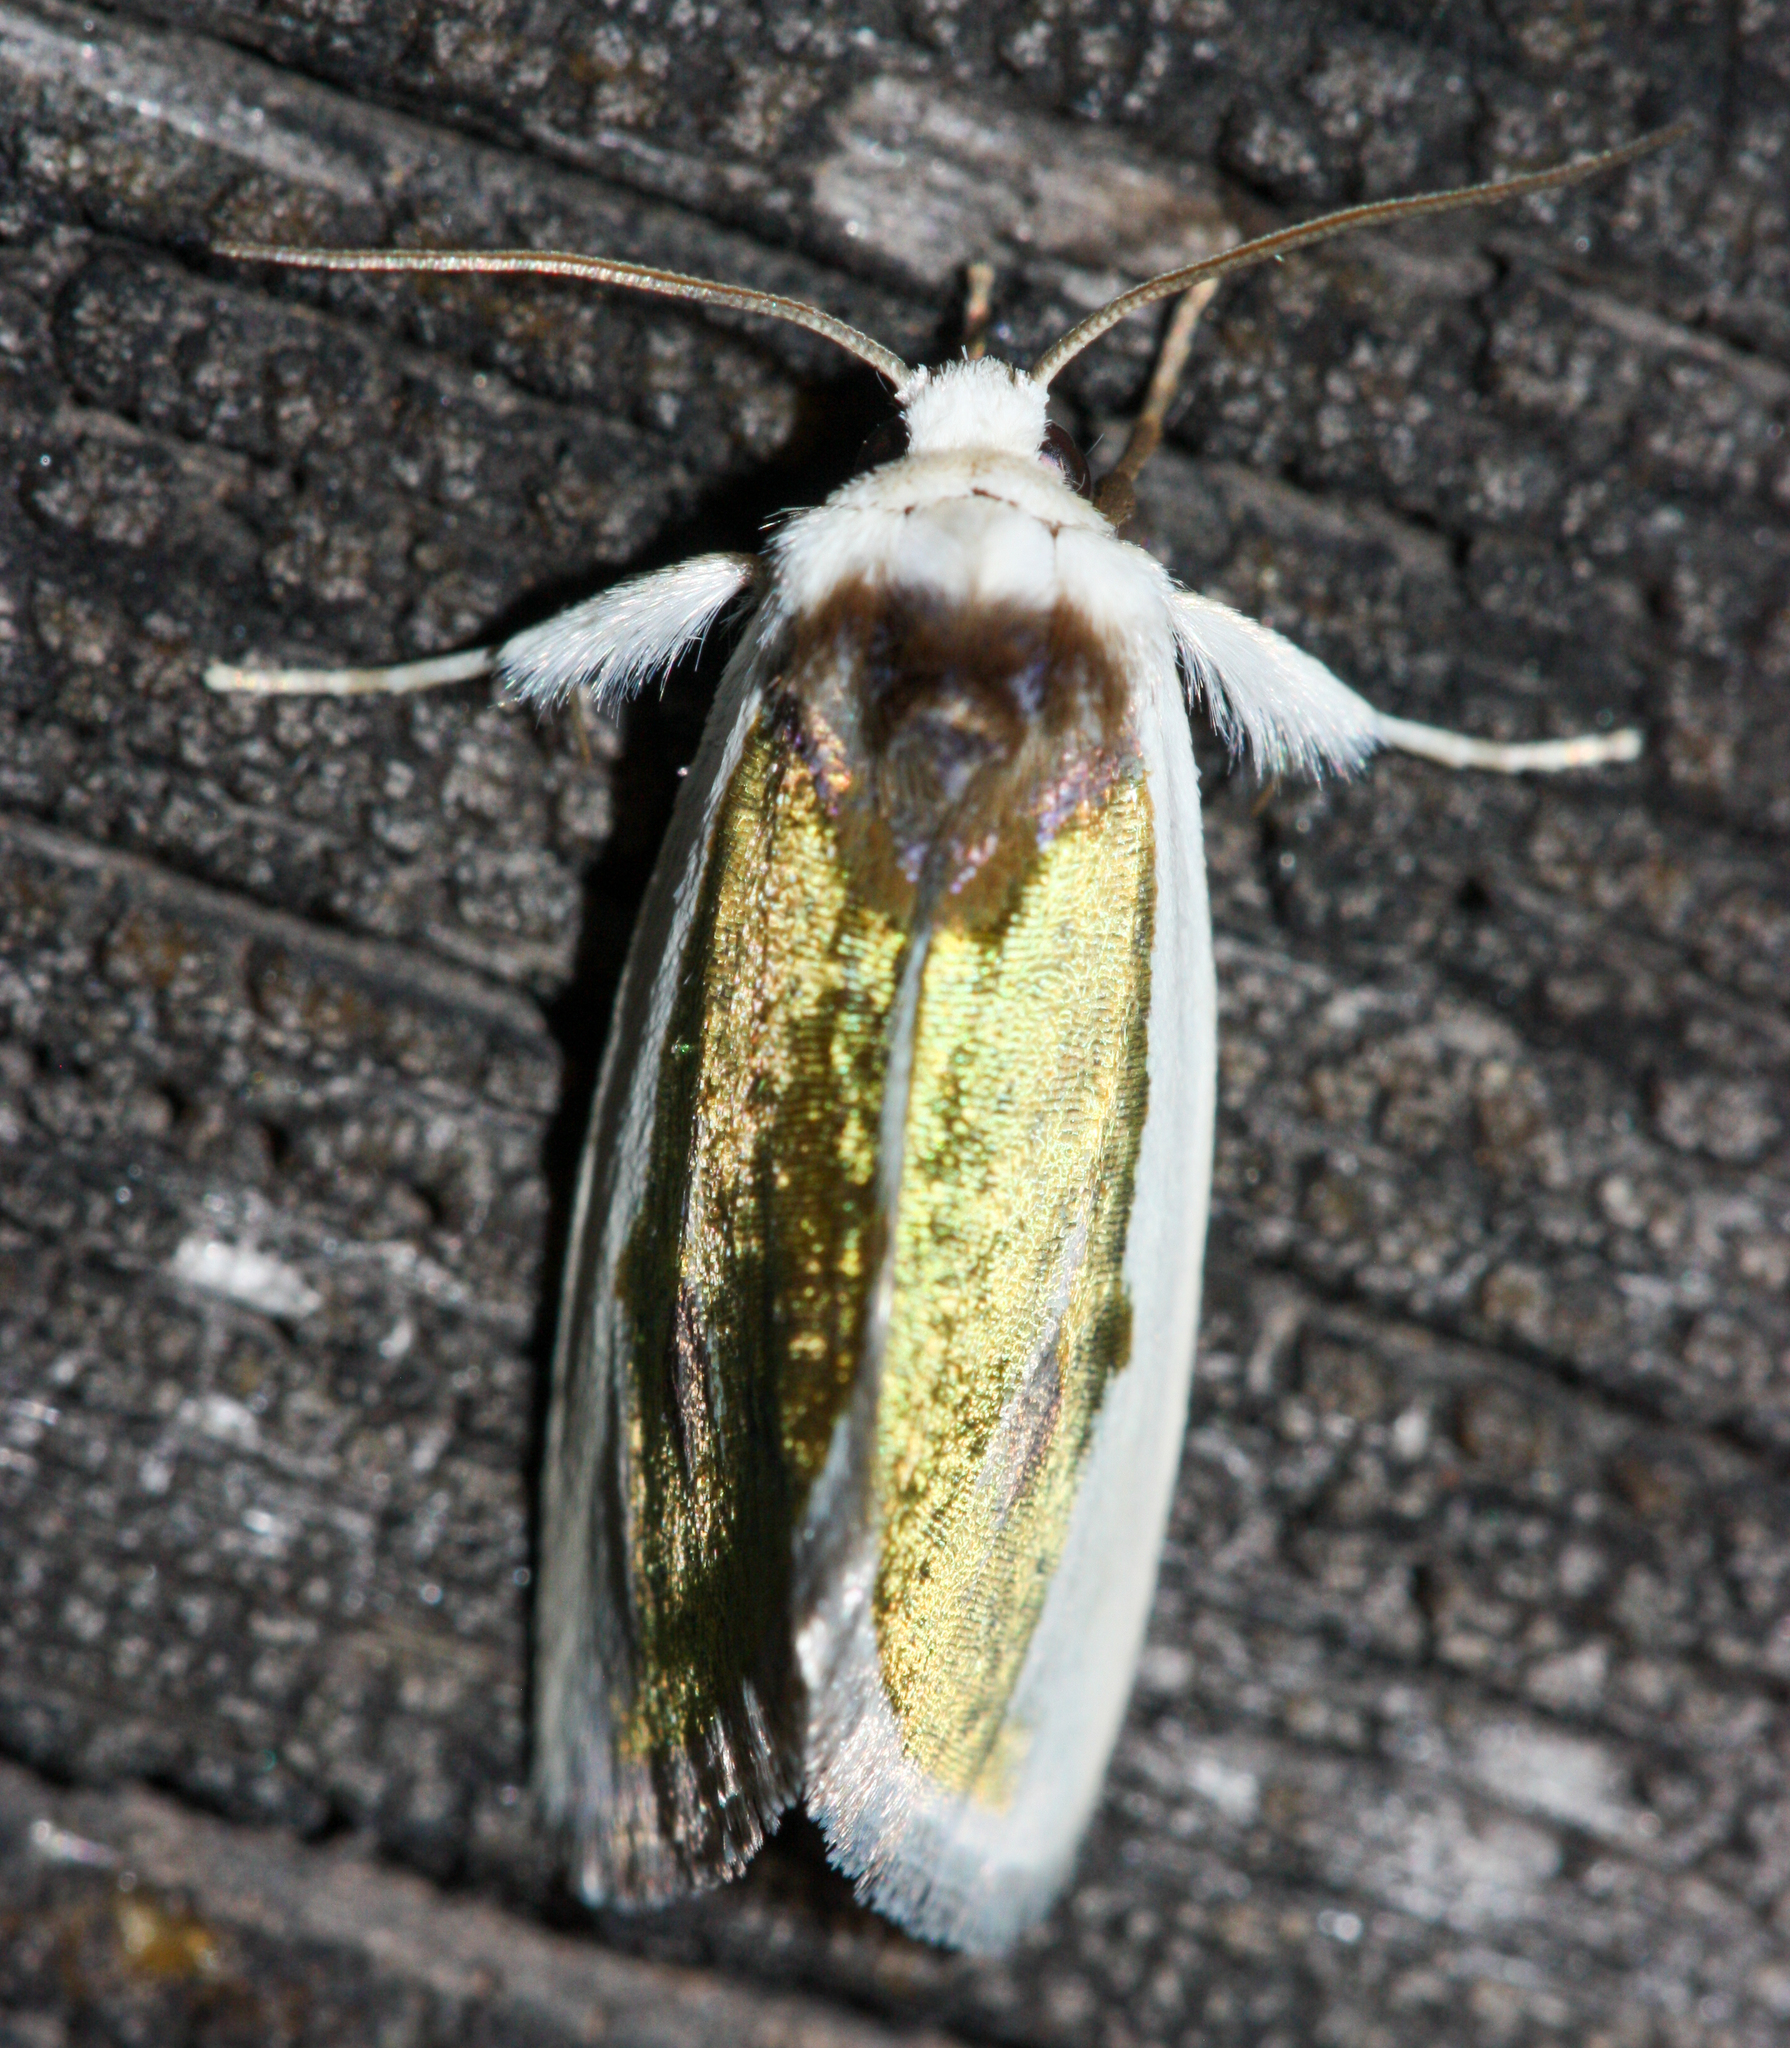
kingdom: Animalia
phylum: Arthropoda
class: Insecta
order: Lepidoptera
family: Noctuidae
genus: Neumoegenia
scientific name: Neumoegenia poetica
